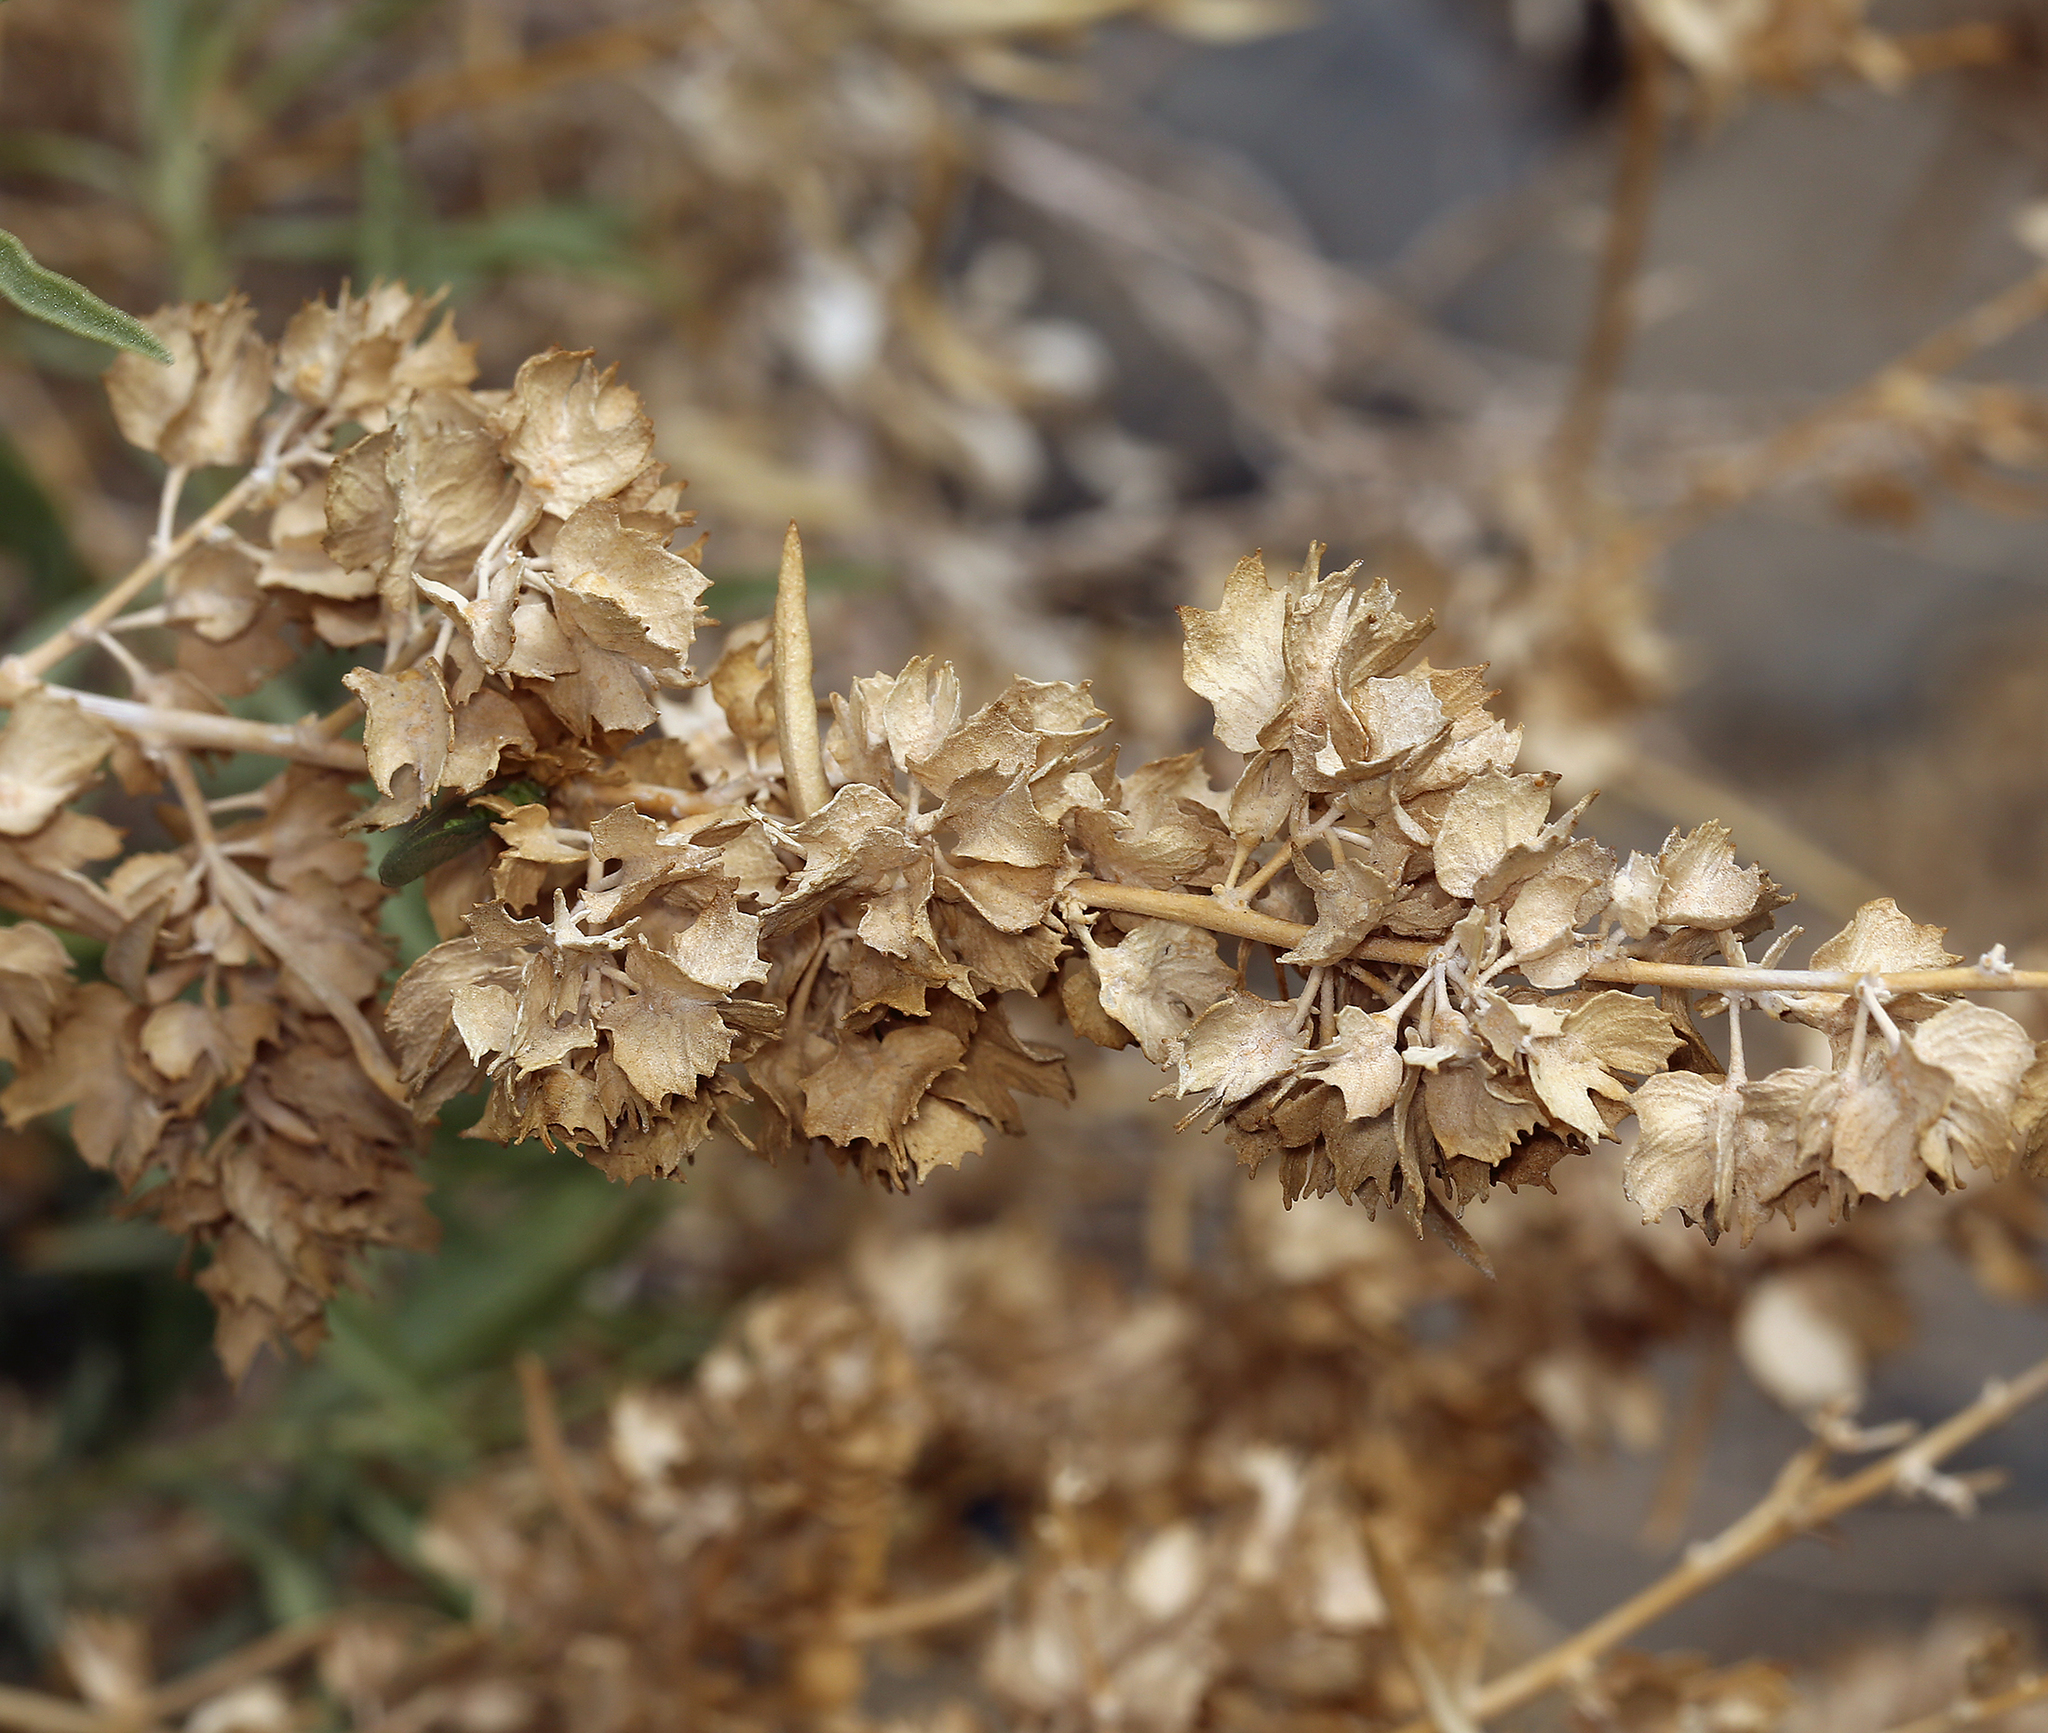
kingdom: Plantae
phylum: Tracheophyta
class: Magnoliopsida
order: Caryophyllales
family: Amaranthaceae
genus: Atriplex
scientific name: Atriplex canescens
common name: Four-wing saltbush
